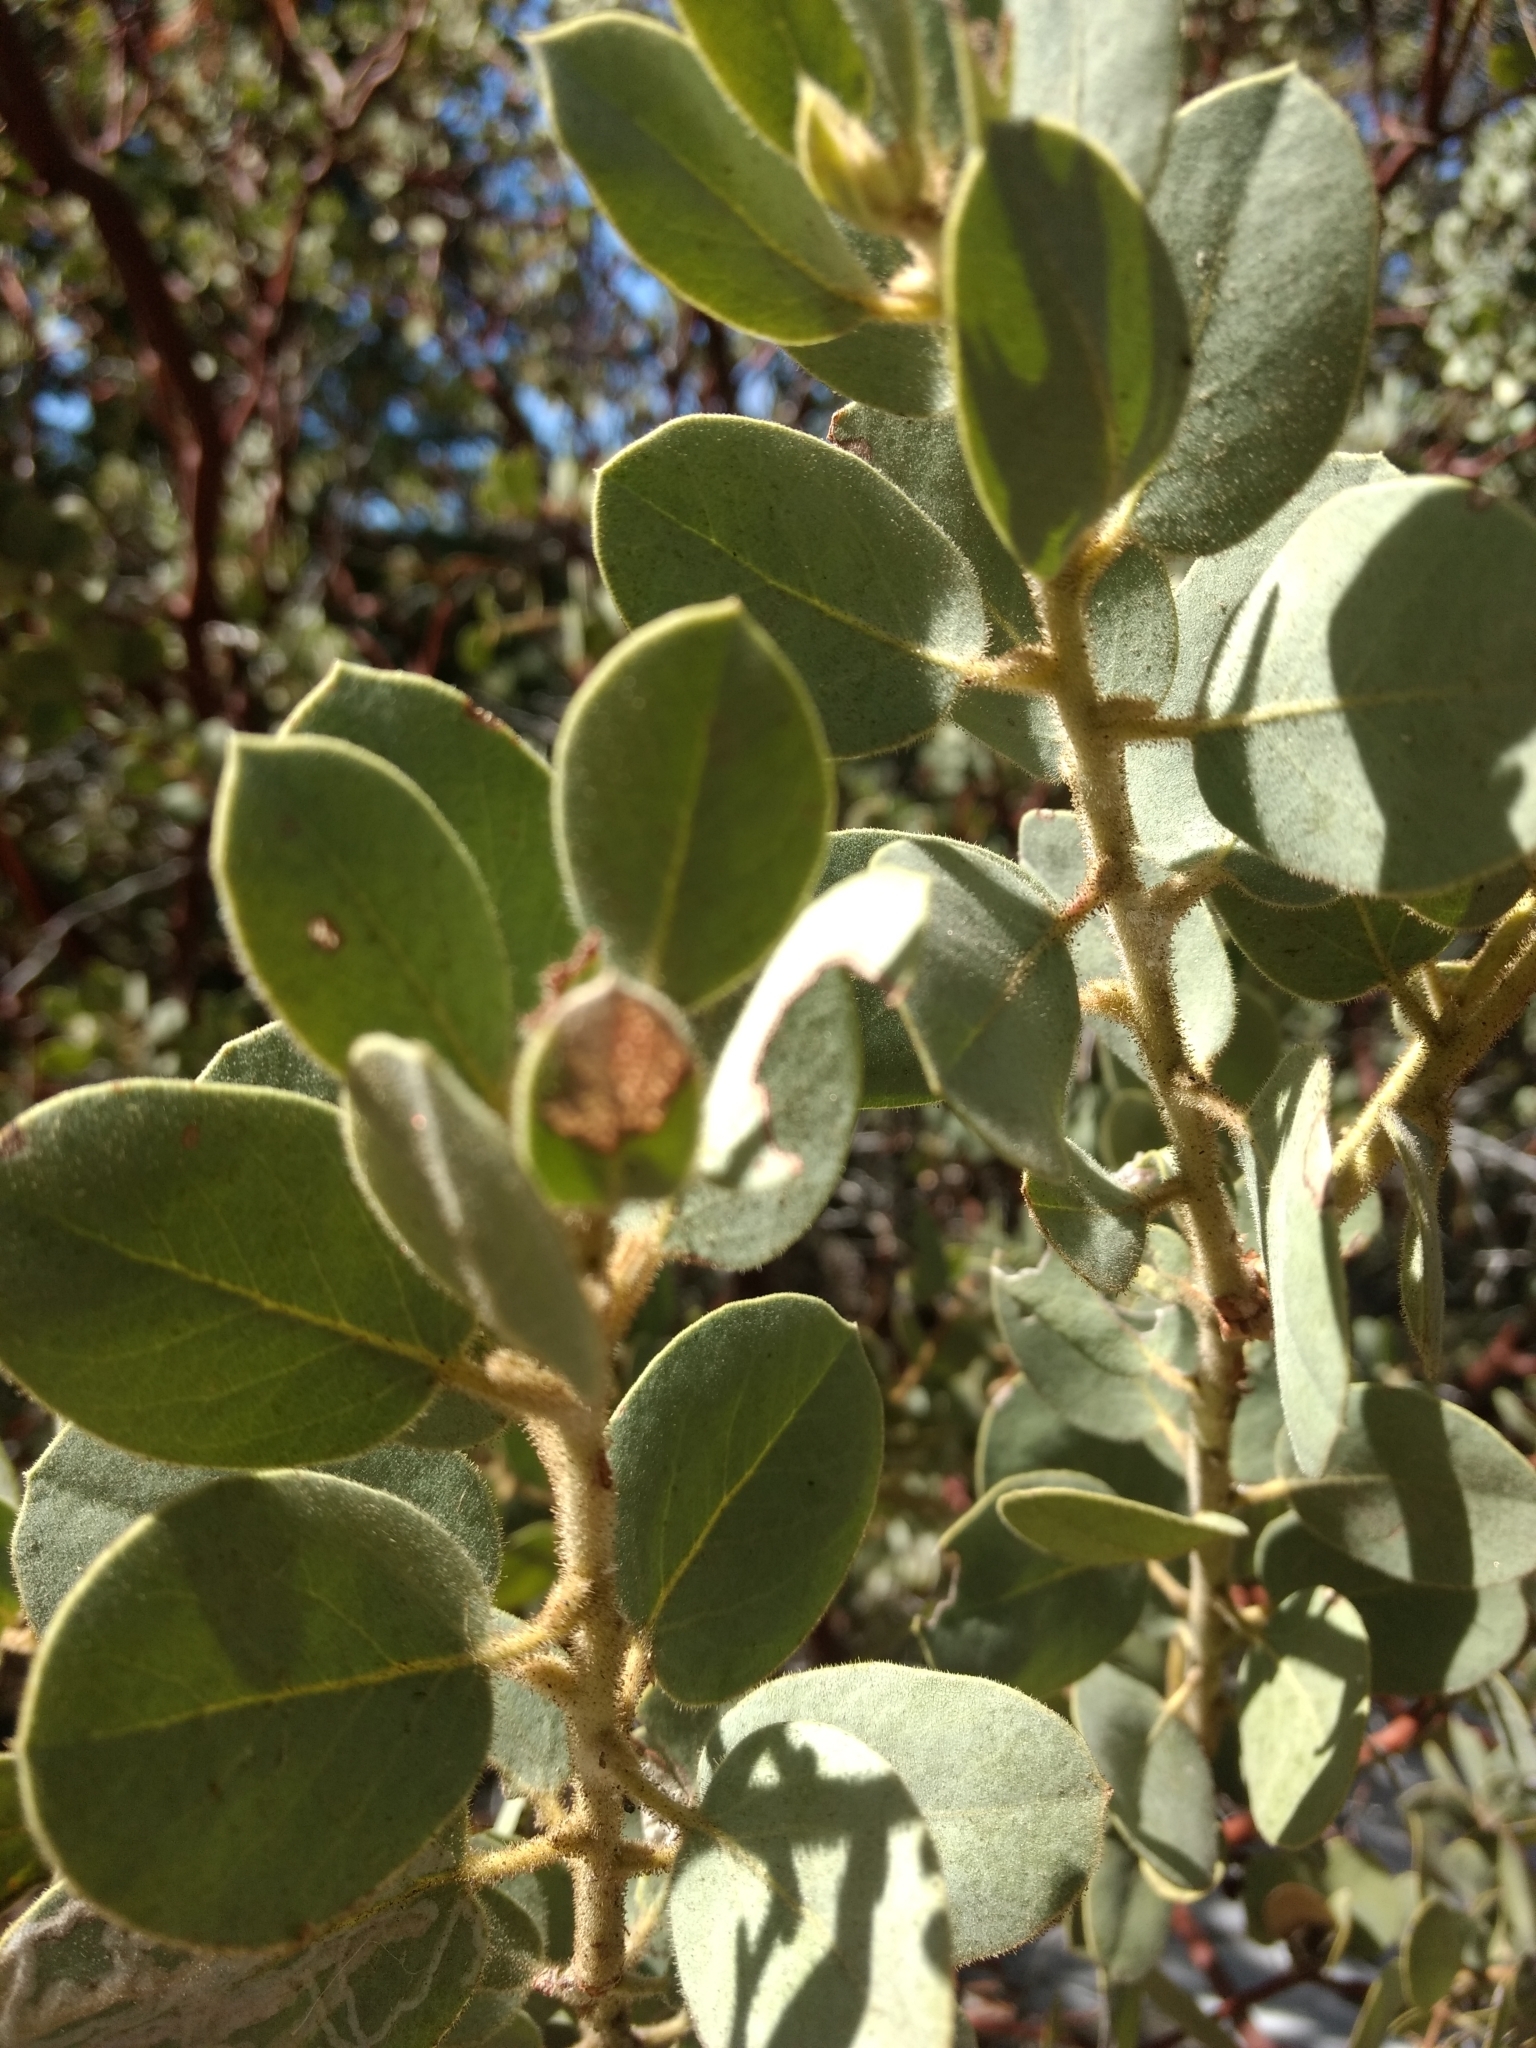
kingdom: Plantae
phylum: Tracheophyta
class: Magnoliopsida
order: Ericales
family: Ericaceae
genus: Arctostaphylos
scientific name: Arctostaphylos pringlei
